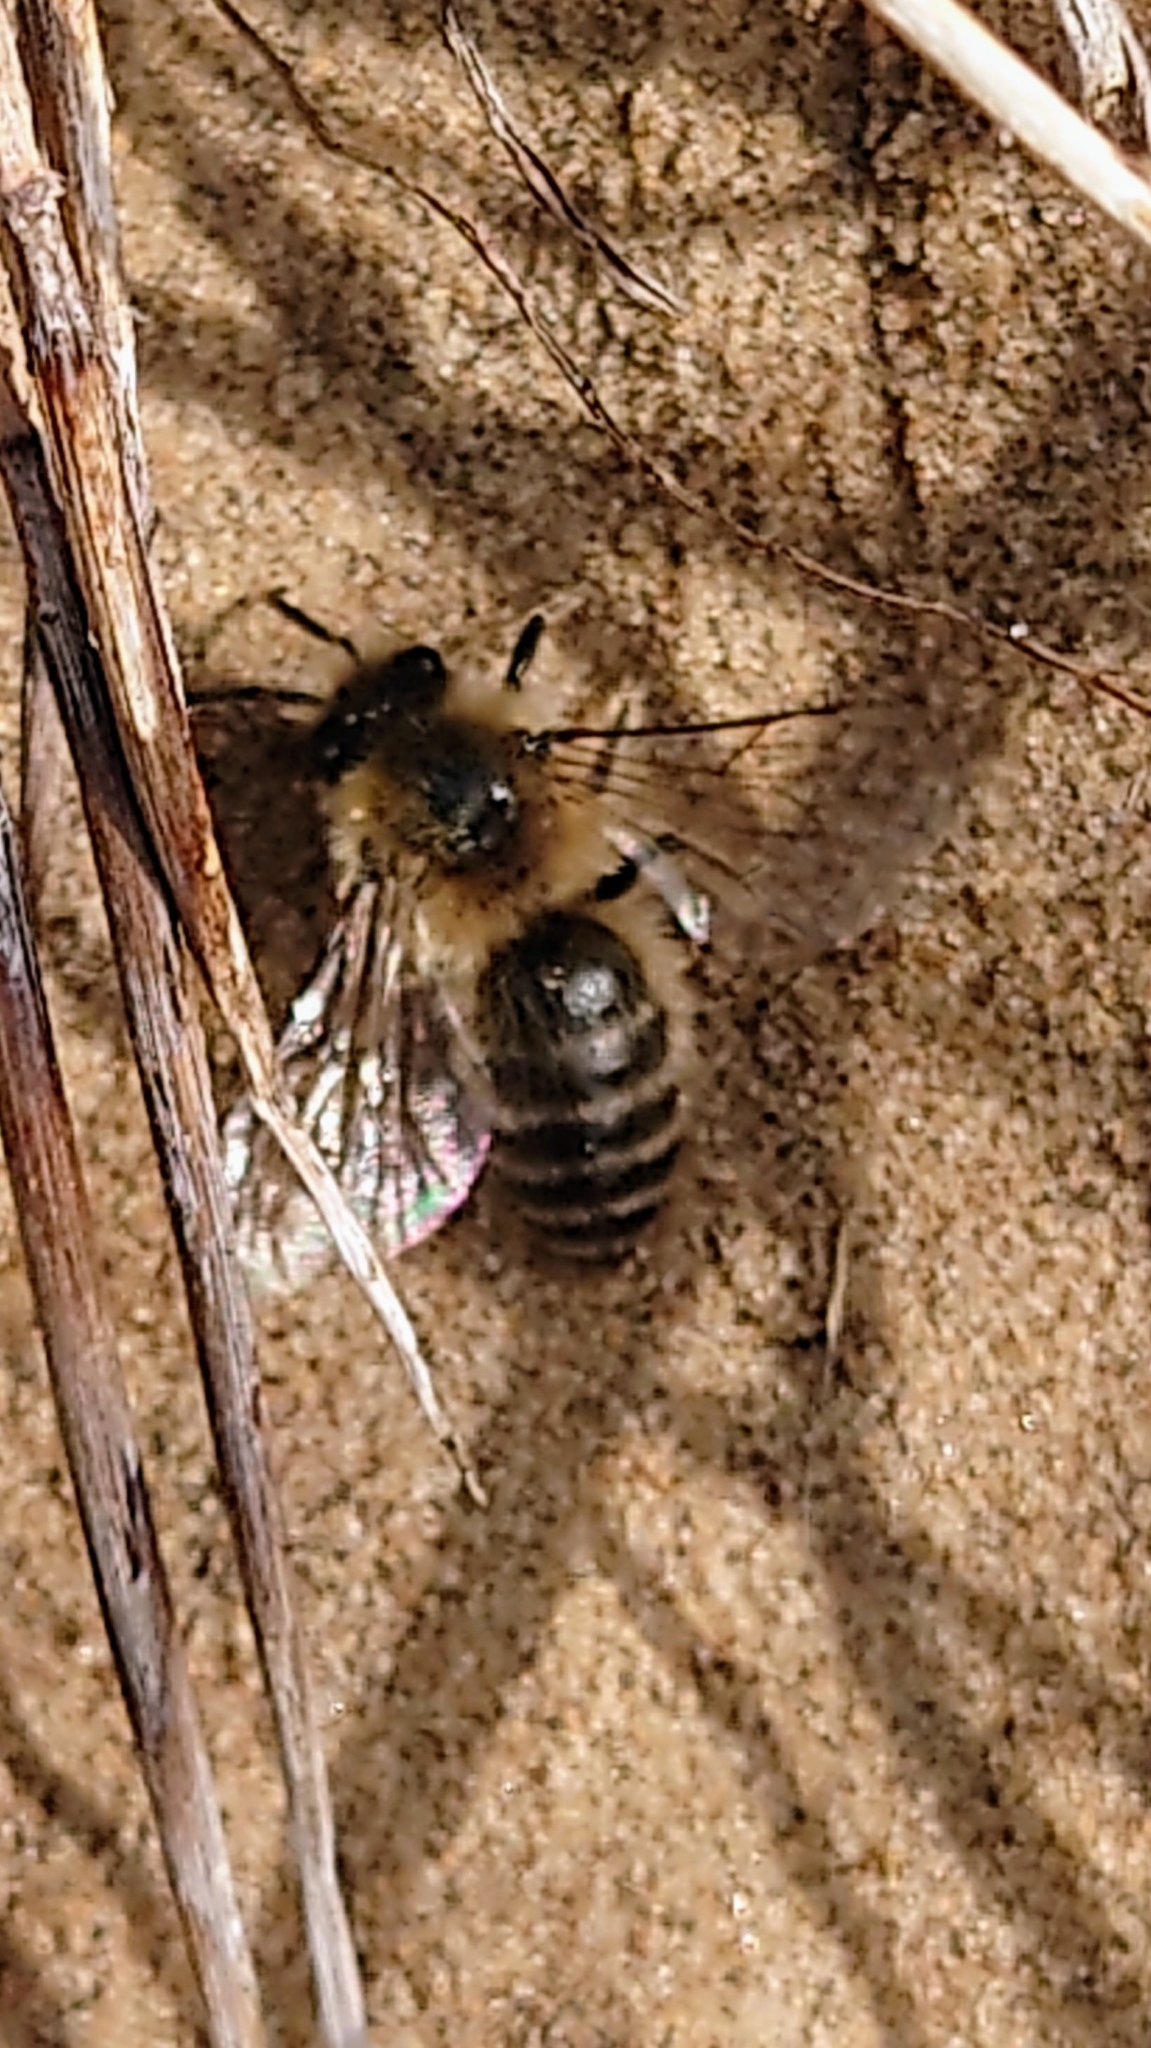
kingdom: Animalia
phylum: Arthropoda
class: Insecta
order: Hymenoptera
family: Colletidae
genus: Colletes
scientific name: Colletes cunicularius
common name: Early colletes
